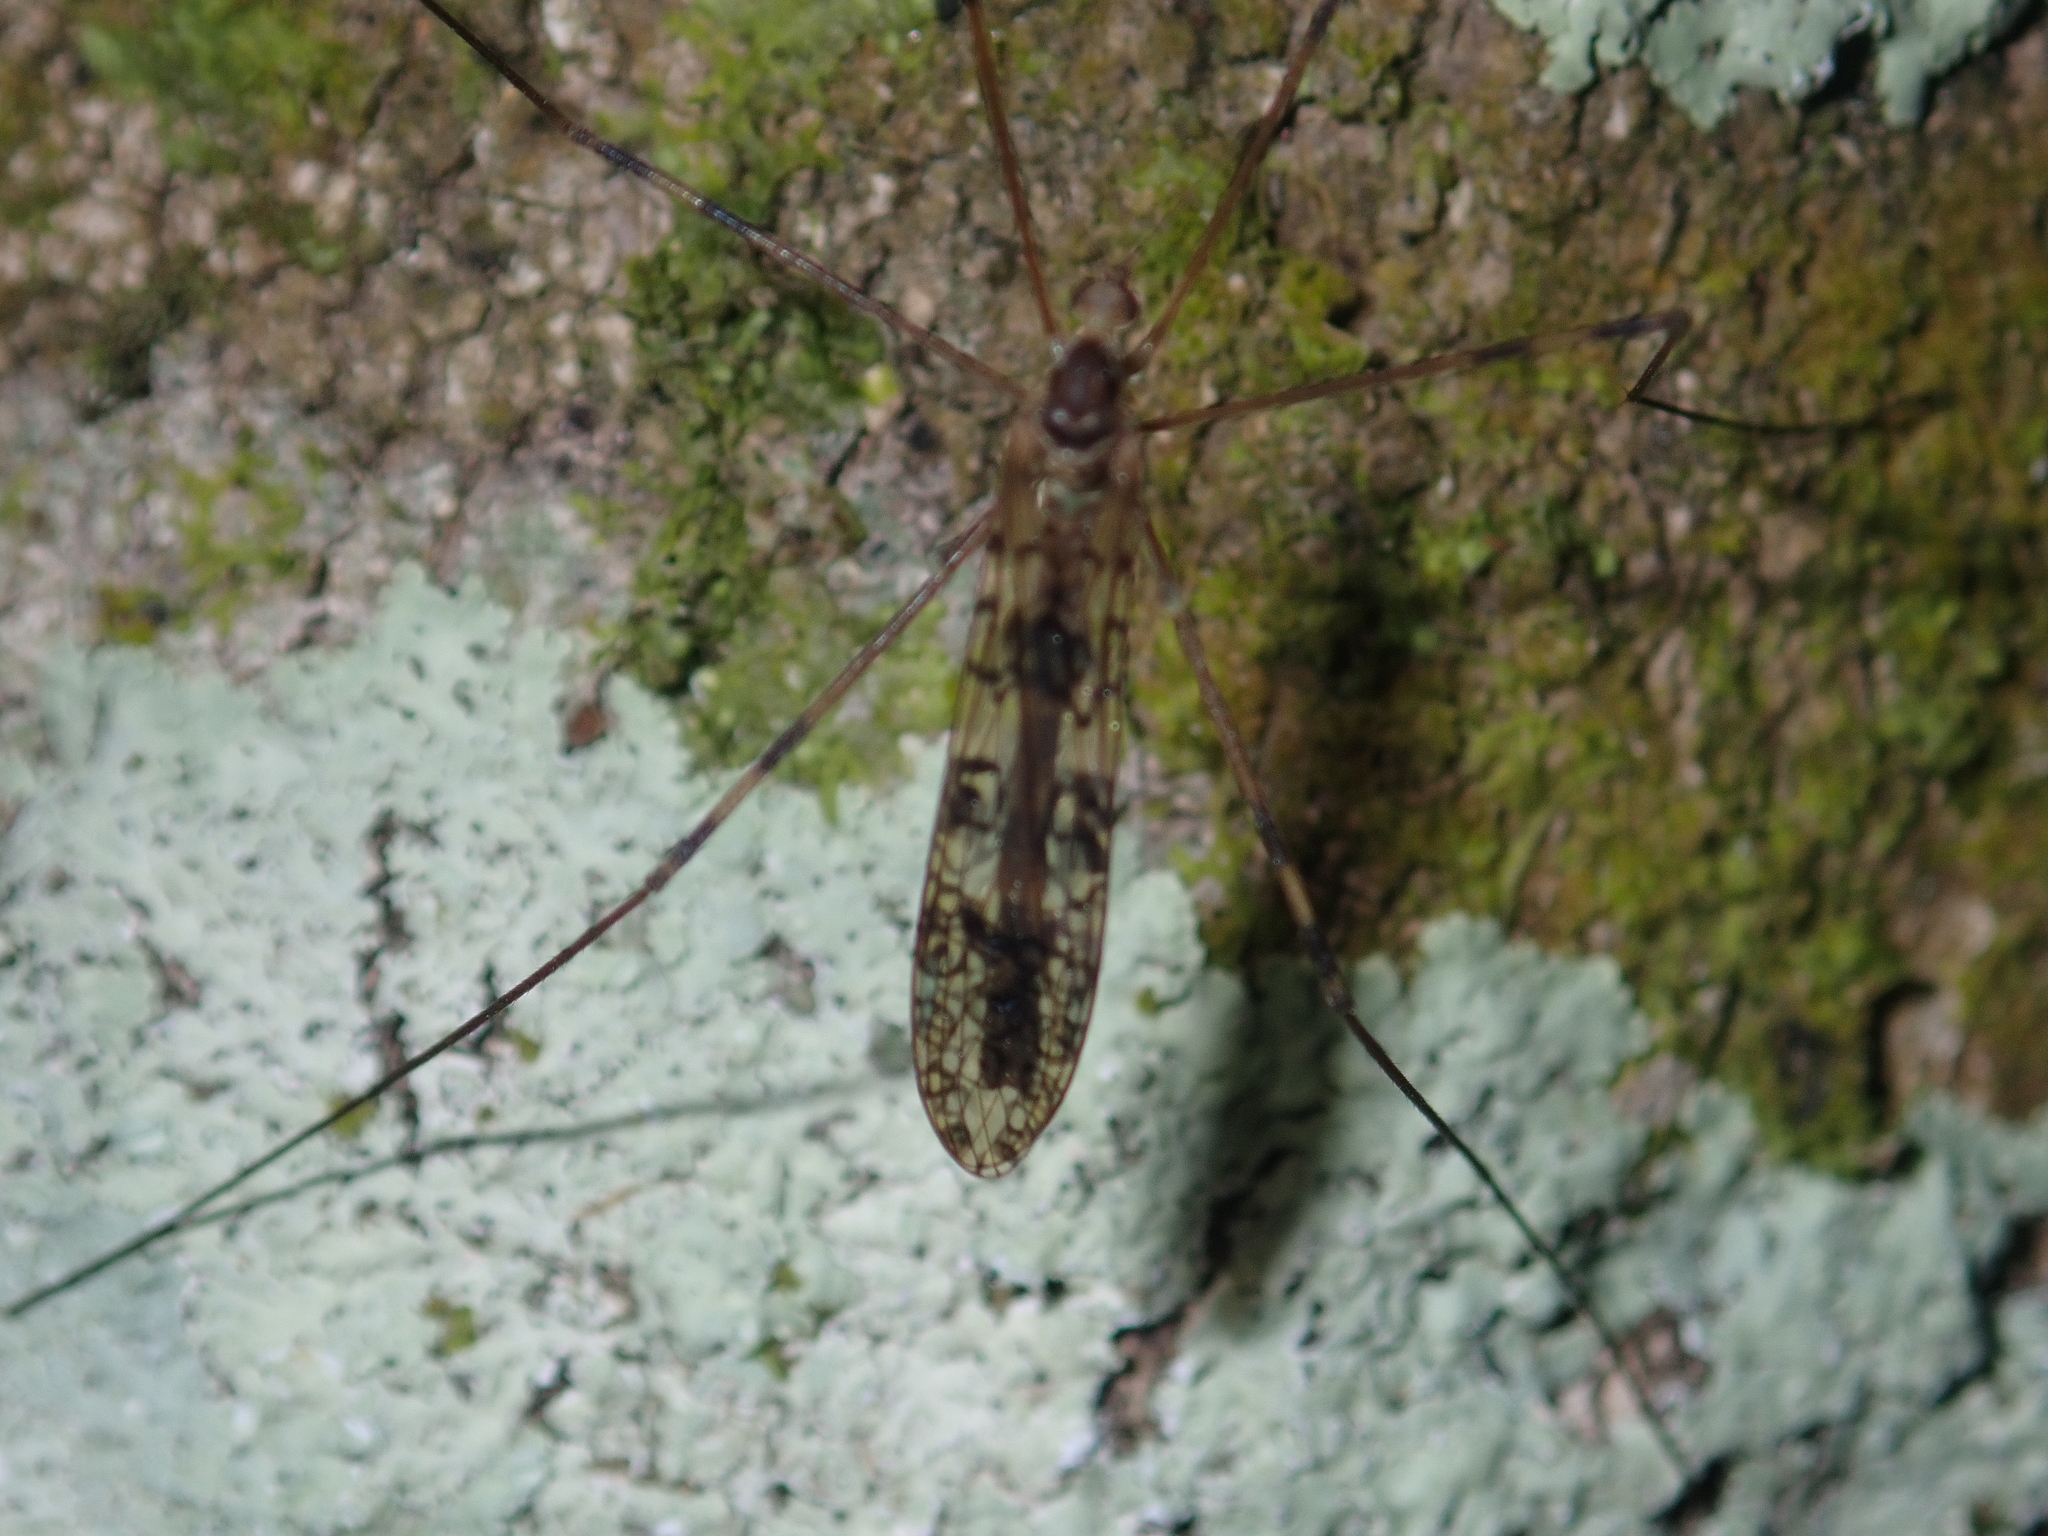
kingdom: Animalia
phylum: Arthropoda
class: Insecta
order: Diptera
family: Limoniidae
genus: Austrolimnophila
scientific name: Austrolimnophila argus
